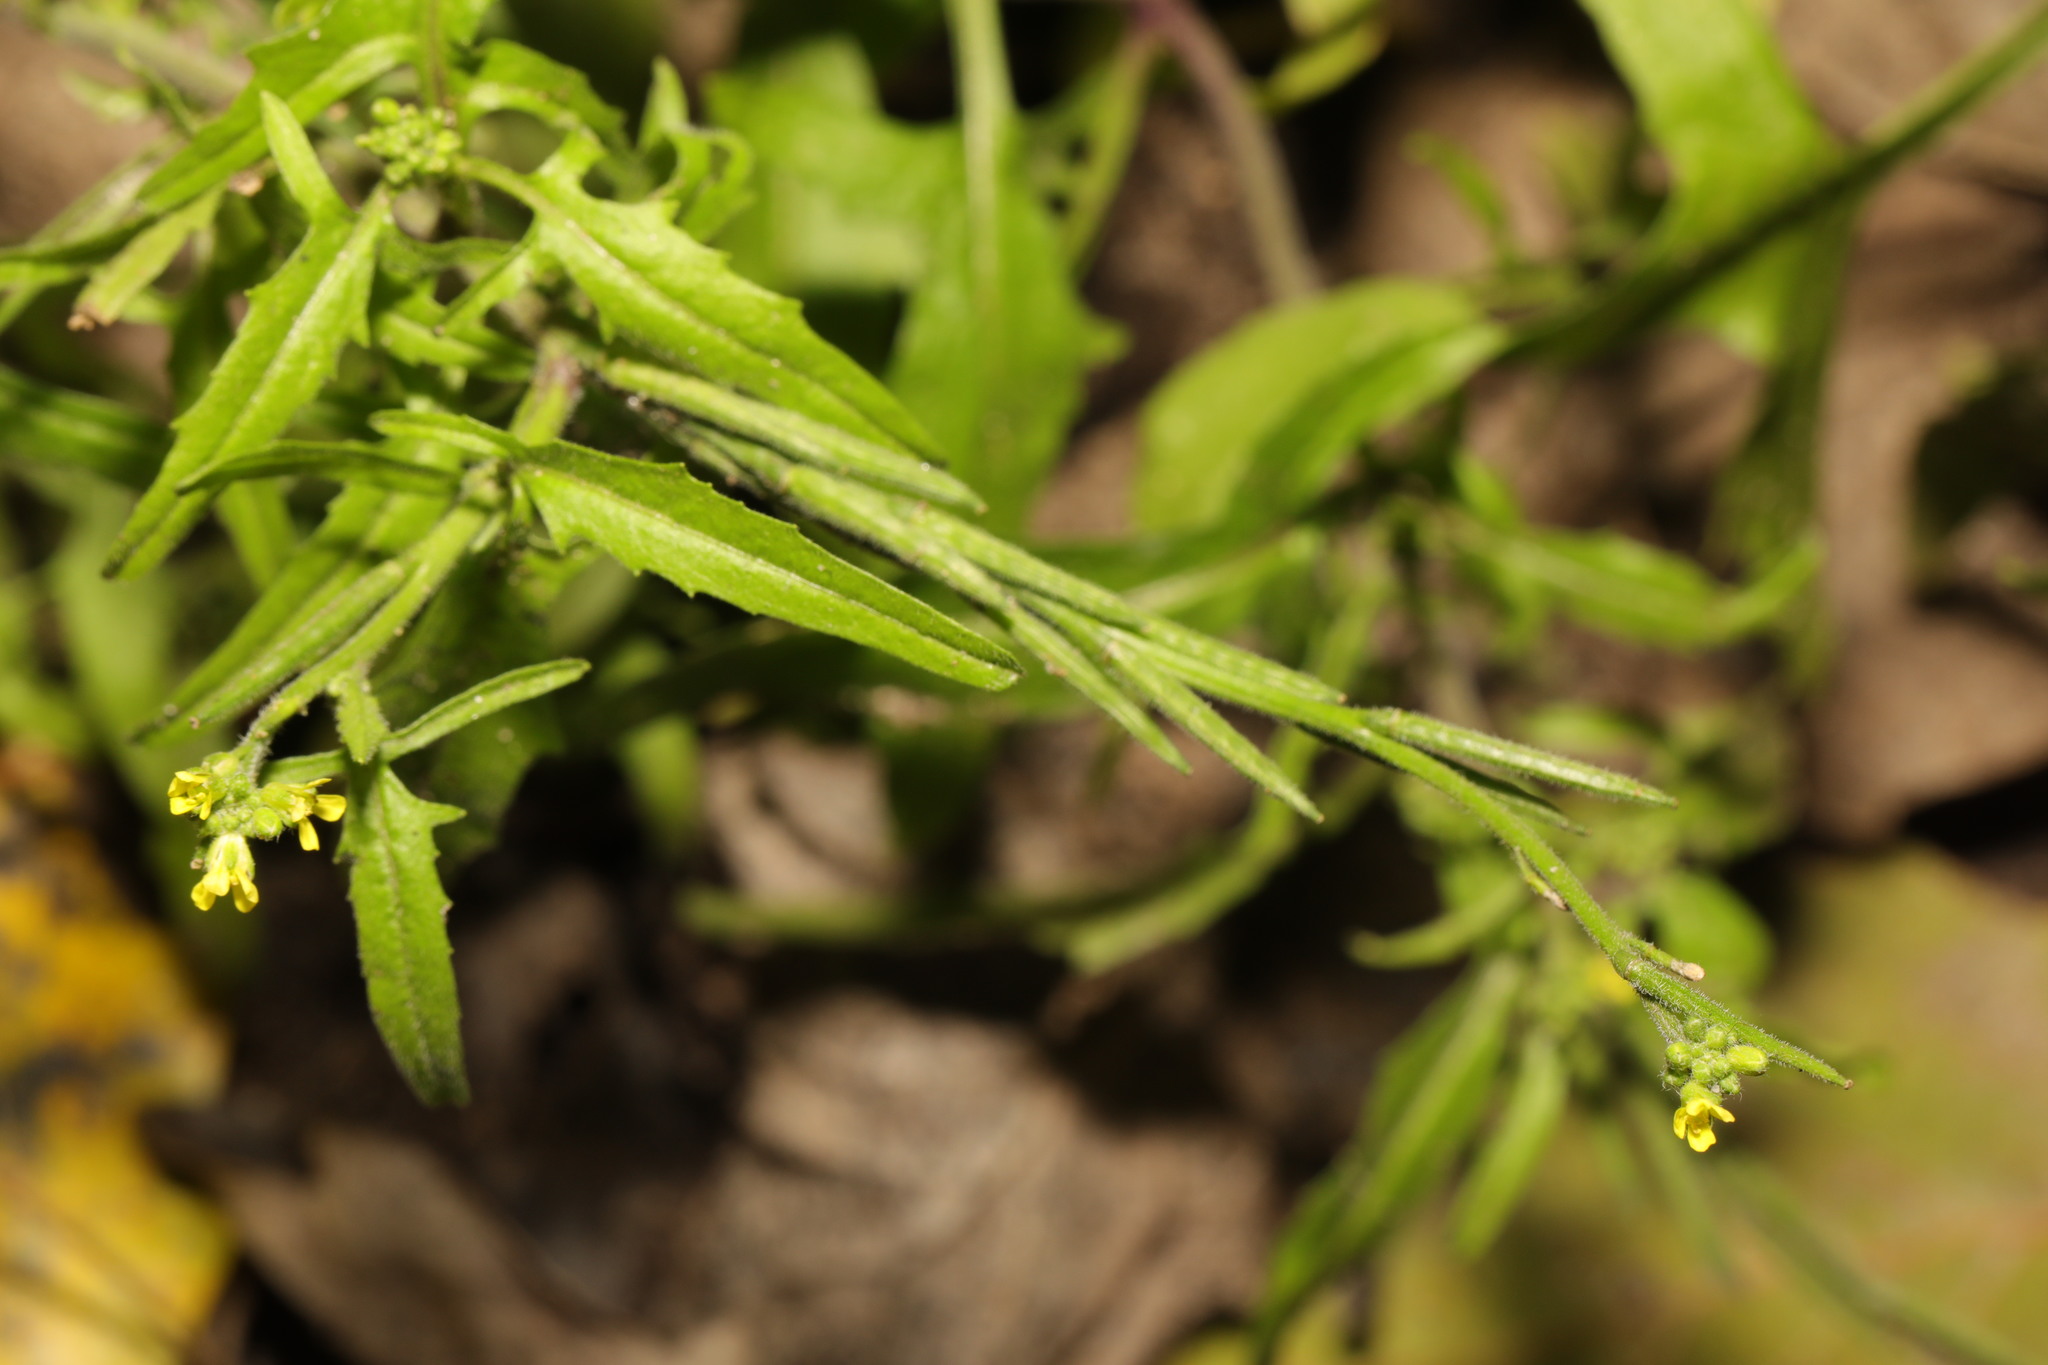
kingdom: Plantae
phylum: Tracheophyta
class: Magnoliopsida
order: Brassicales
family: Brassicaceae
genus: Sisymbrium
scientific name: Sisymbrium officinale
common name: Hedge mustard
